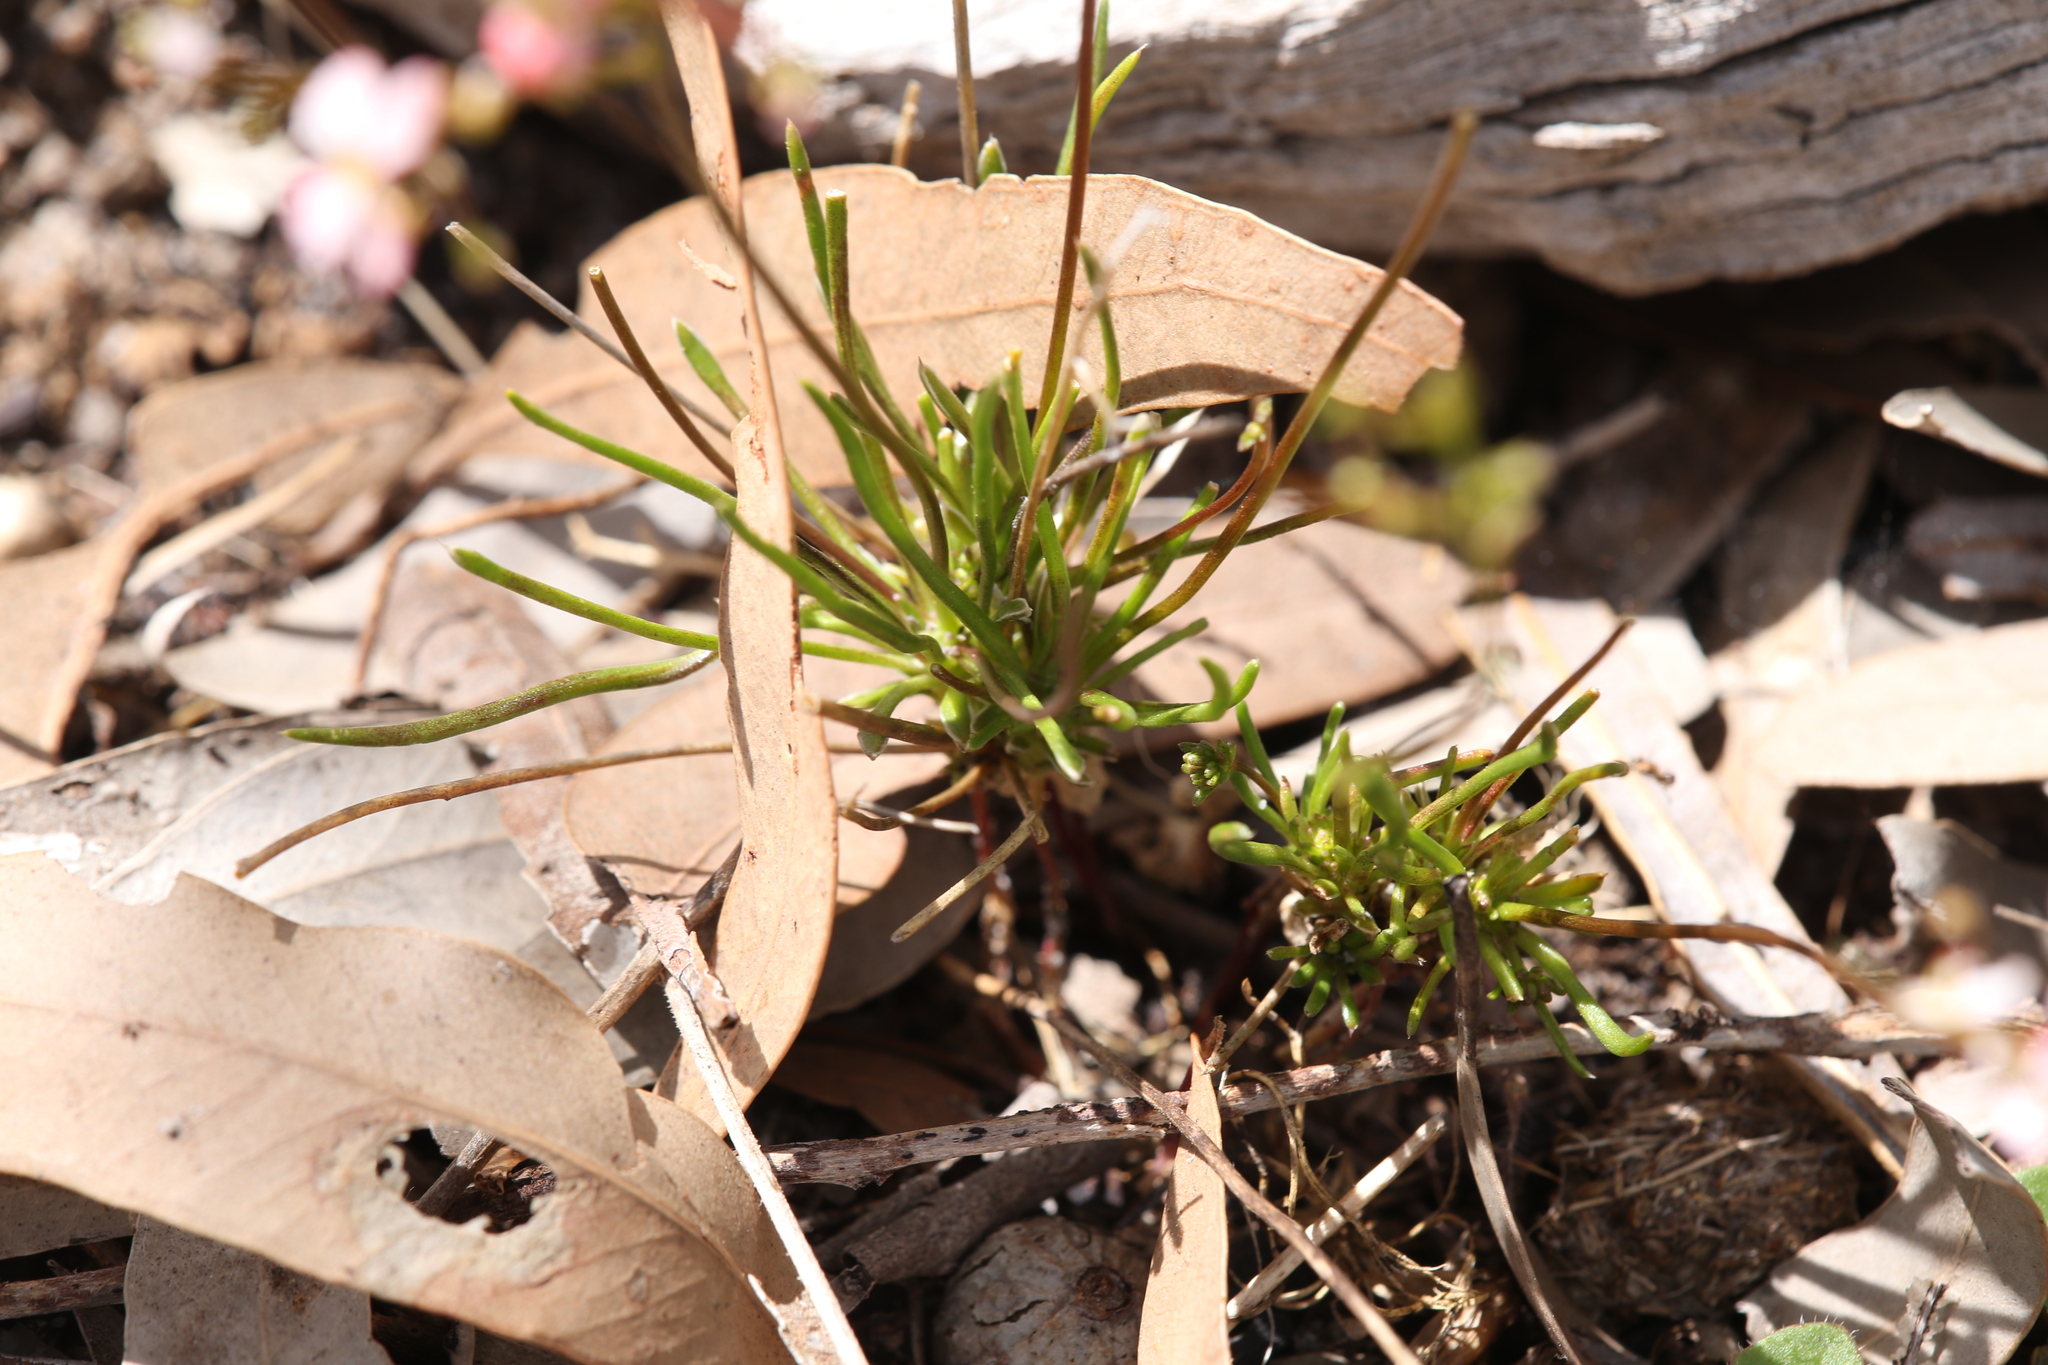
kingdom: Plantae
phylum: Tracheophyta
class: Magnoliopsida
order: Asterales
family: Stylidiaceae
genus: Stylidium
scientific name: Stylidium rigidulum
